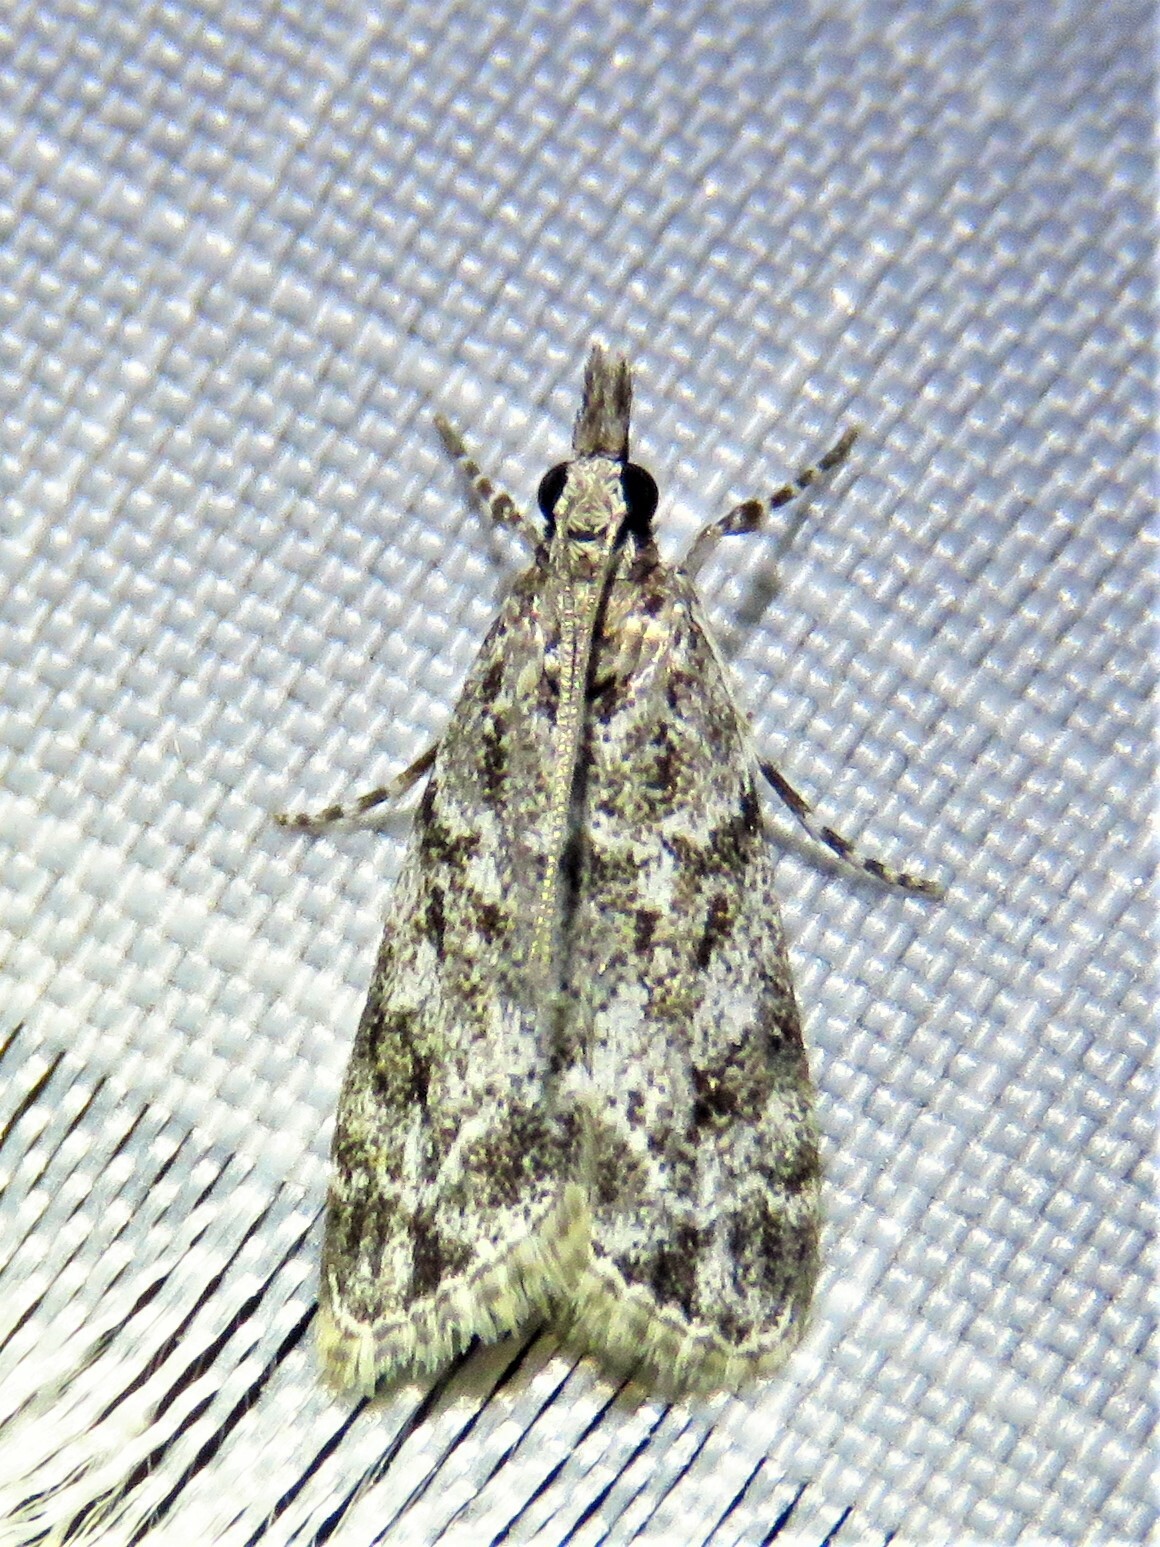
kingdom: Animalia
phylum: Arthropoda
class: Insecta
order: Lepidoptera
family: Crambidae
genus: Eudonia
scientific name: Eudonia heterosalis
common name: Mcdunnough's eudonia
